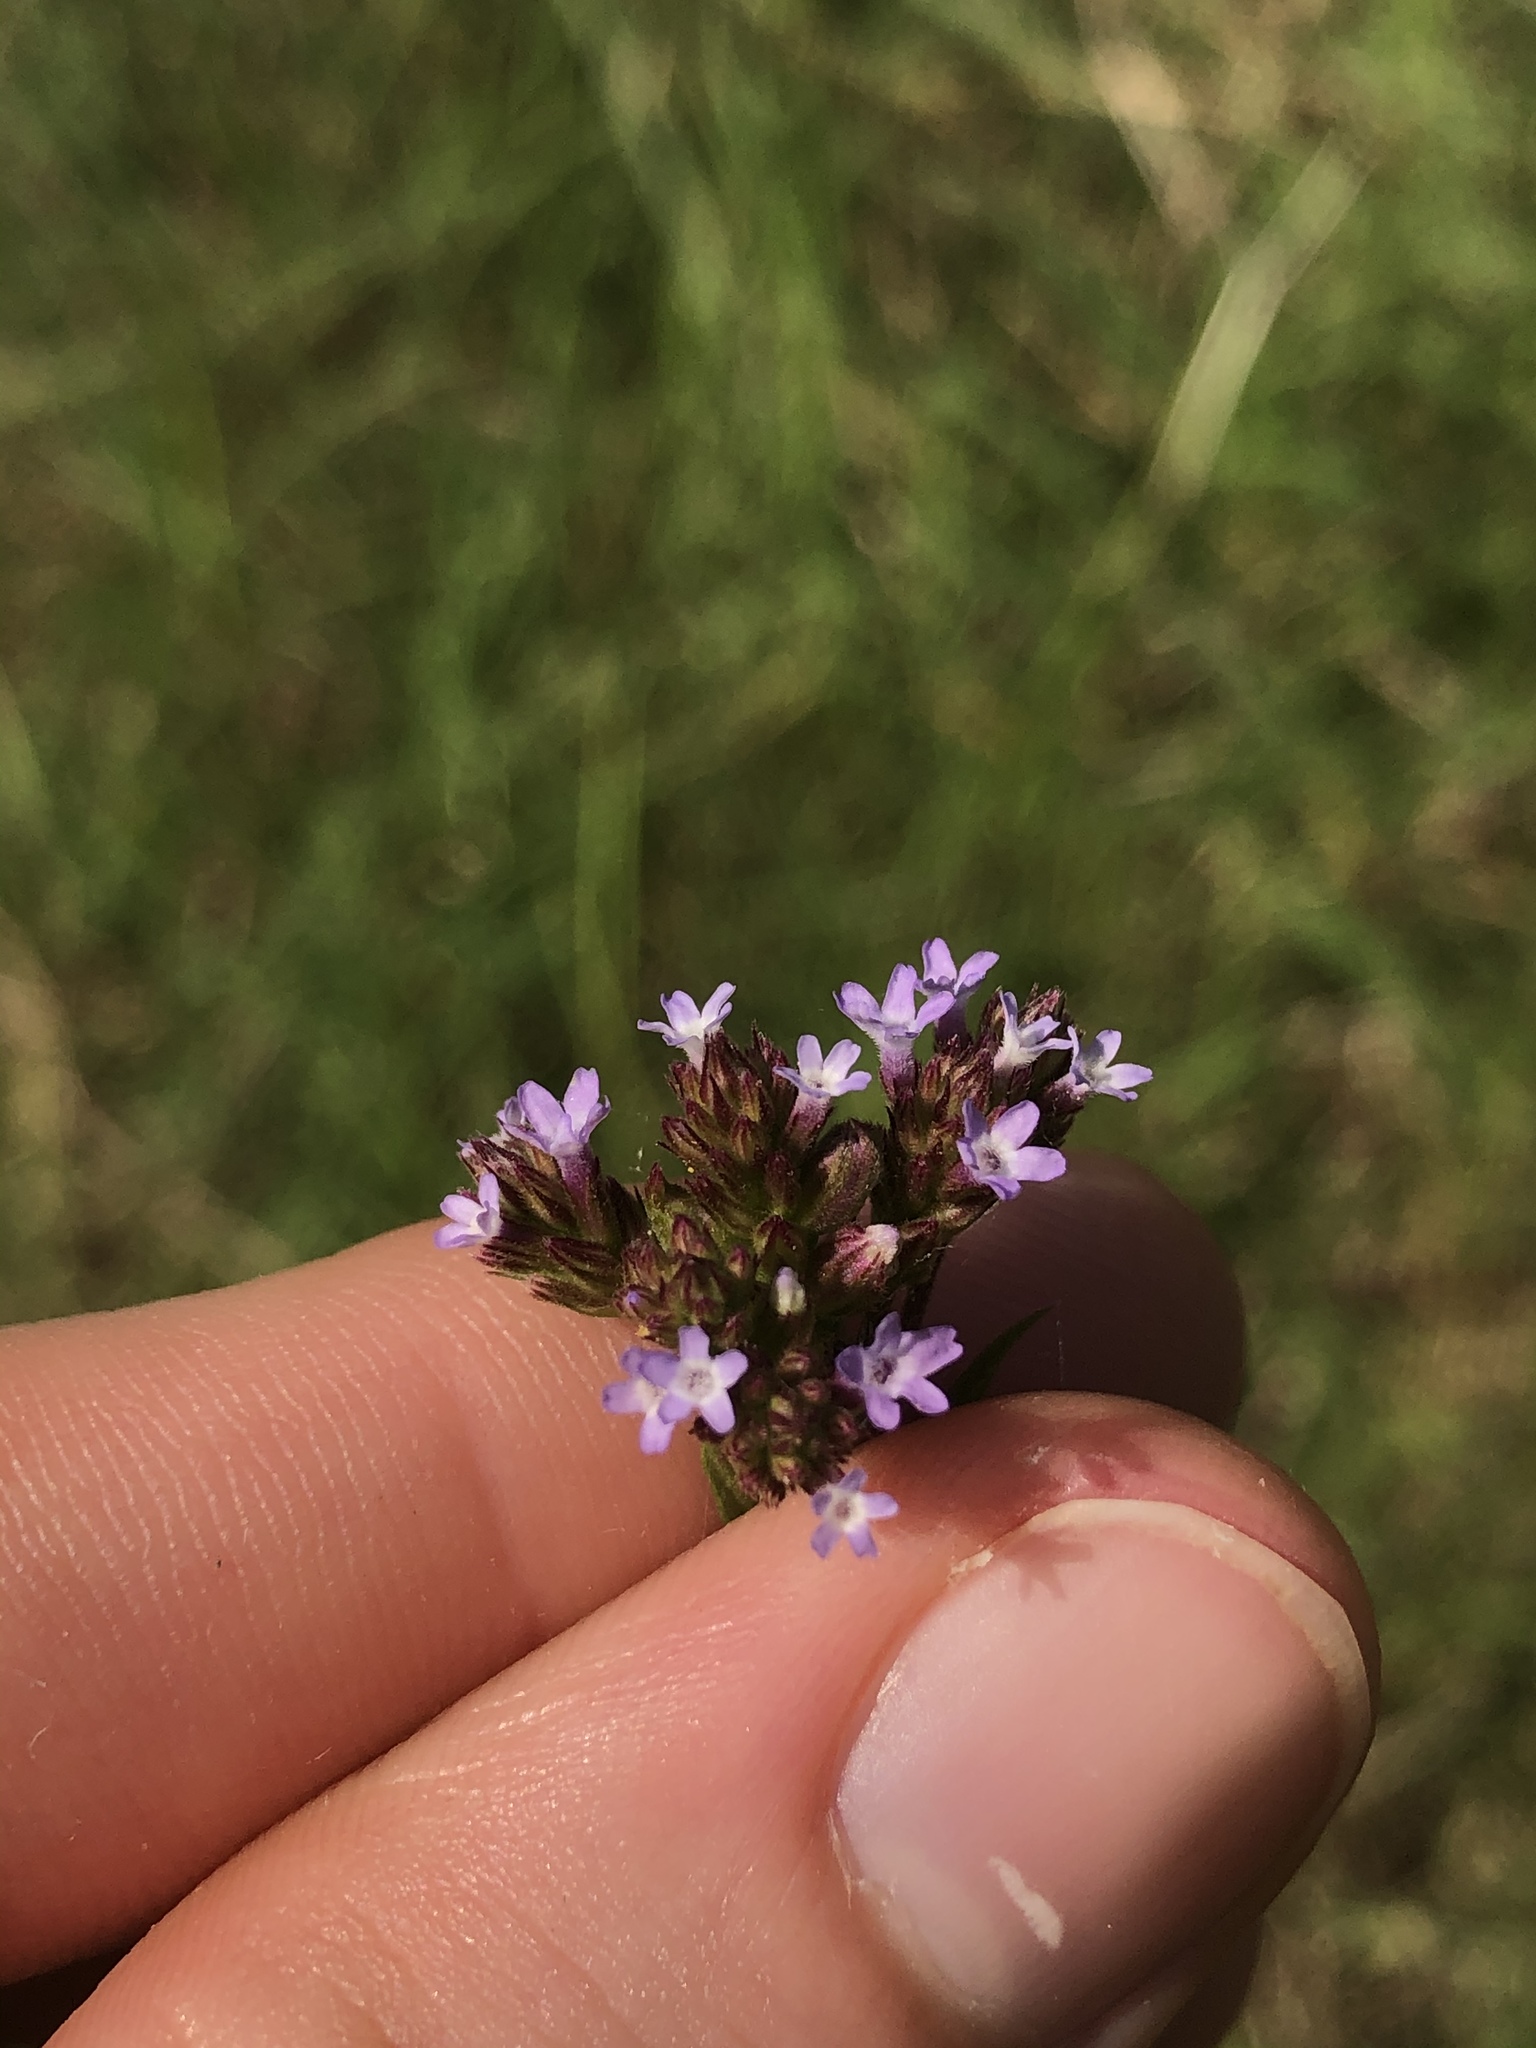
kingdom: Plantae
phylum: Tracheophyta
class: Magnoliopsida
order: Lamiales
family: Verbenaceae
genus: Verbena
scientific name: Verbena brasiliensis
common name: Brazilian vervain
